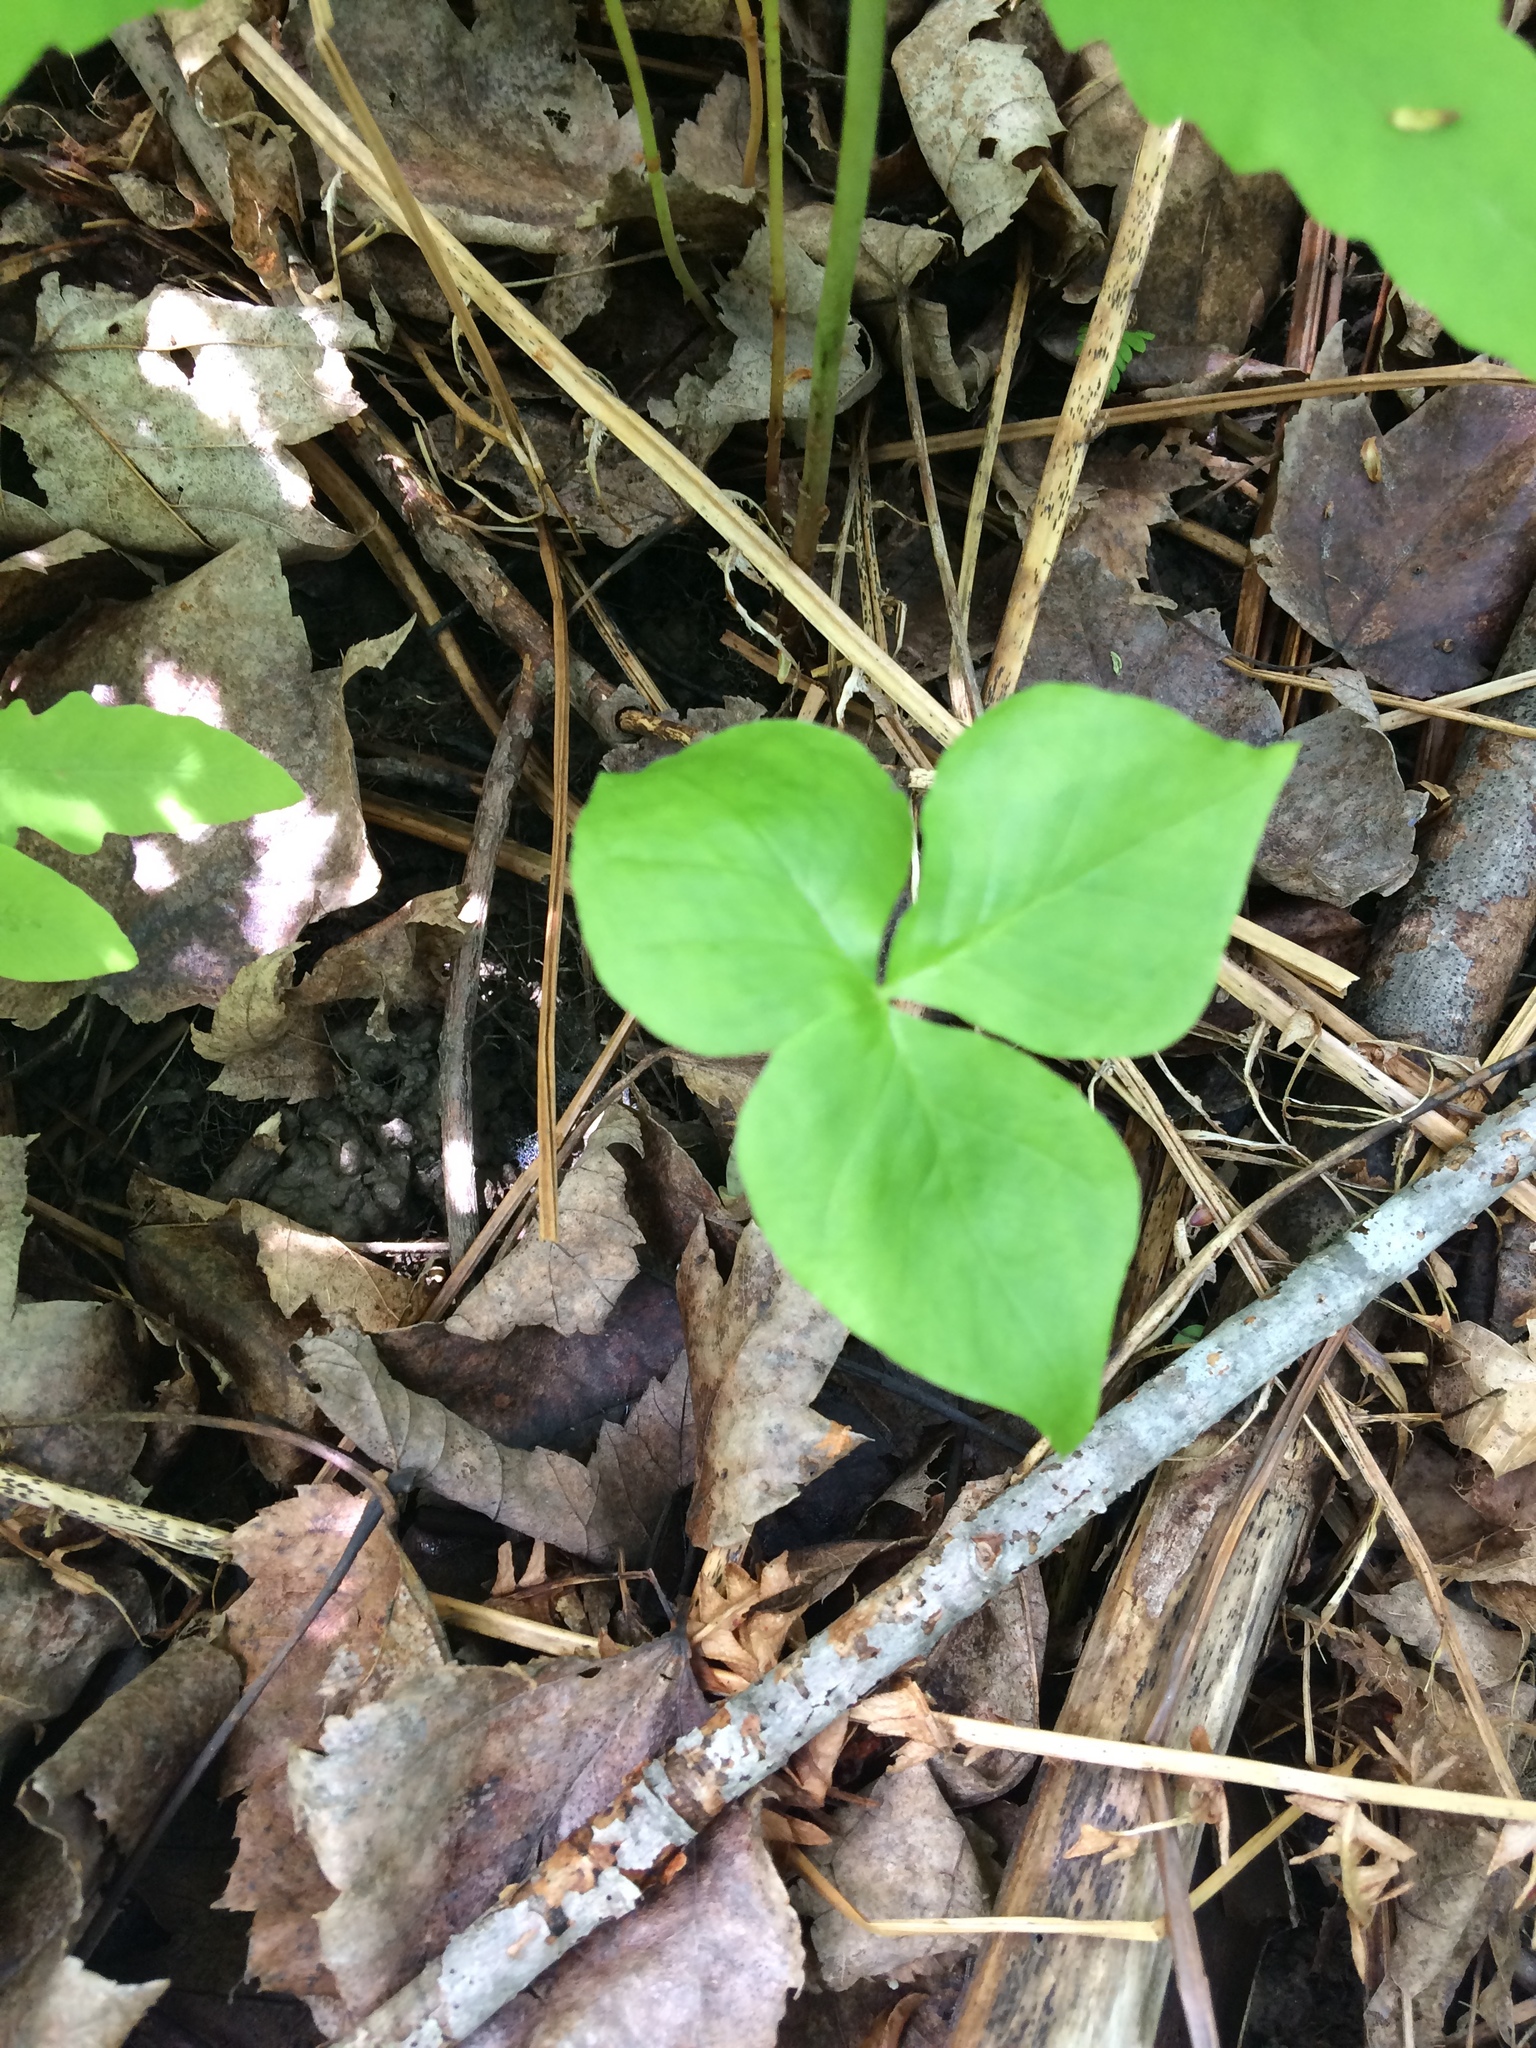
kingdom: Plantae
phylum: Tracheophyta
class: Liliopsida
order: Alismatales
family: Araceae
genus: Arisaema
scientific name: Arisaema triphyllum
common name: Jack-in-the-pulpit
